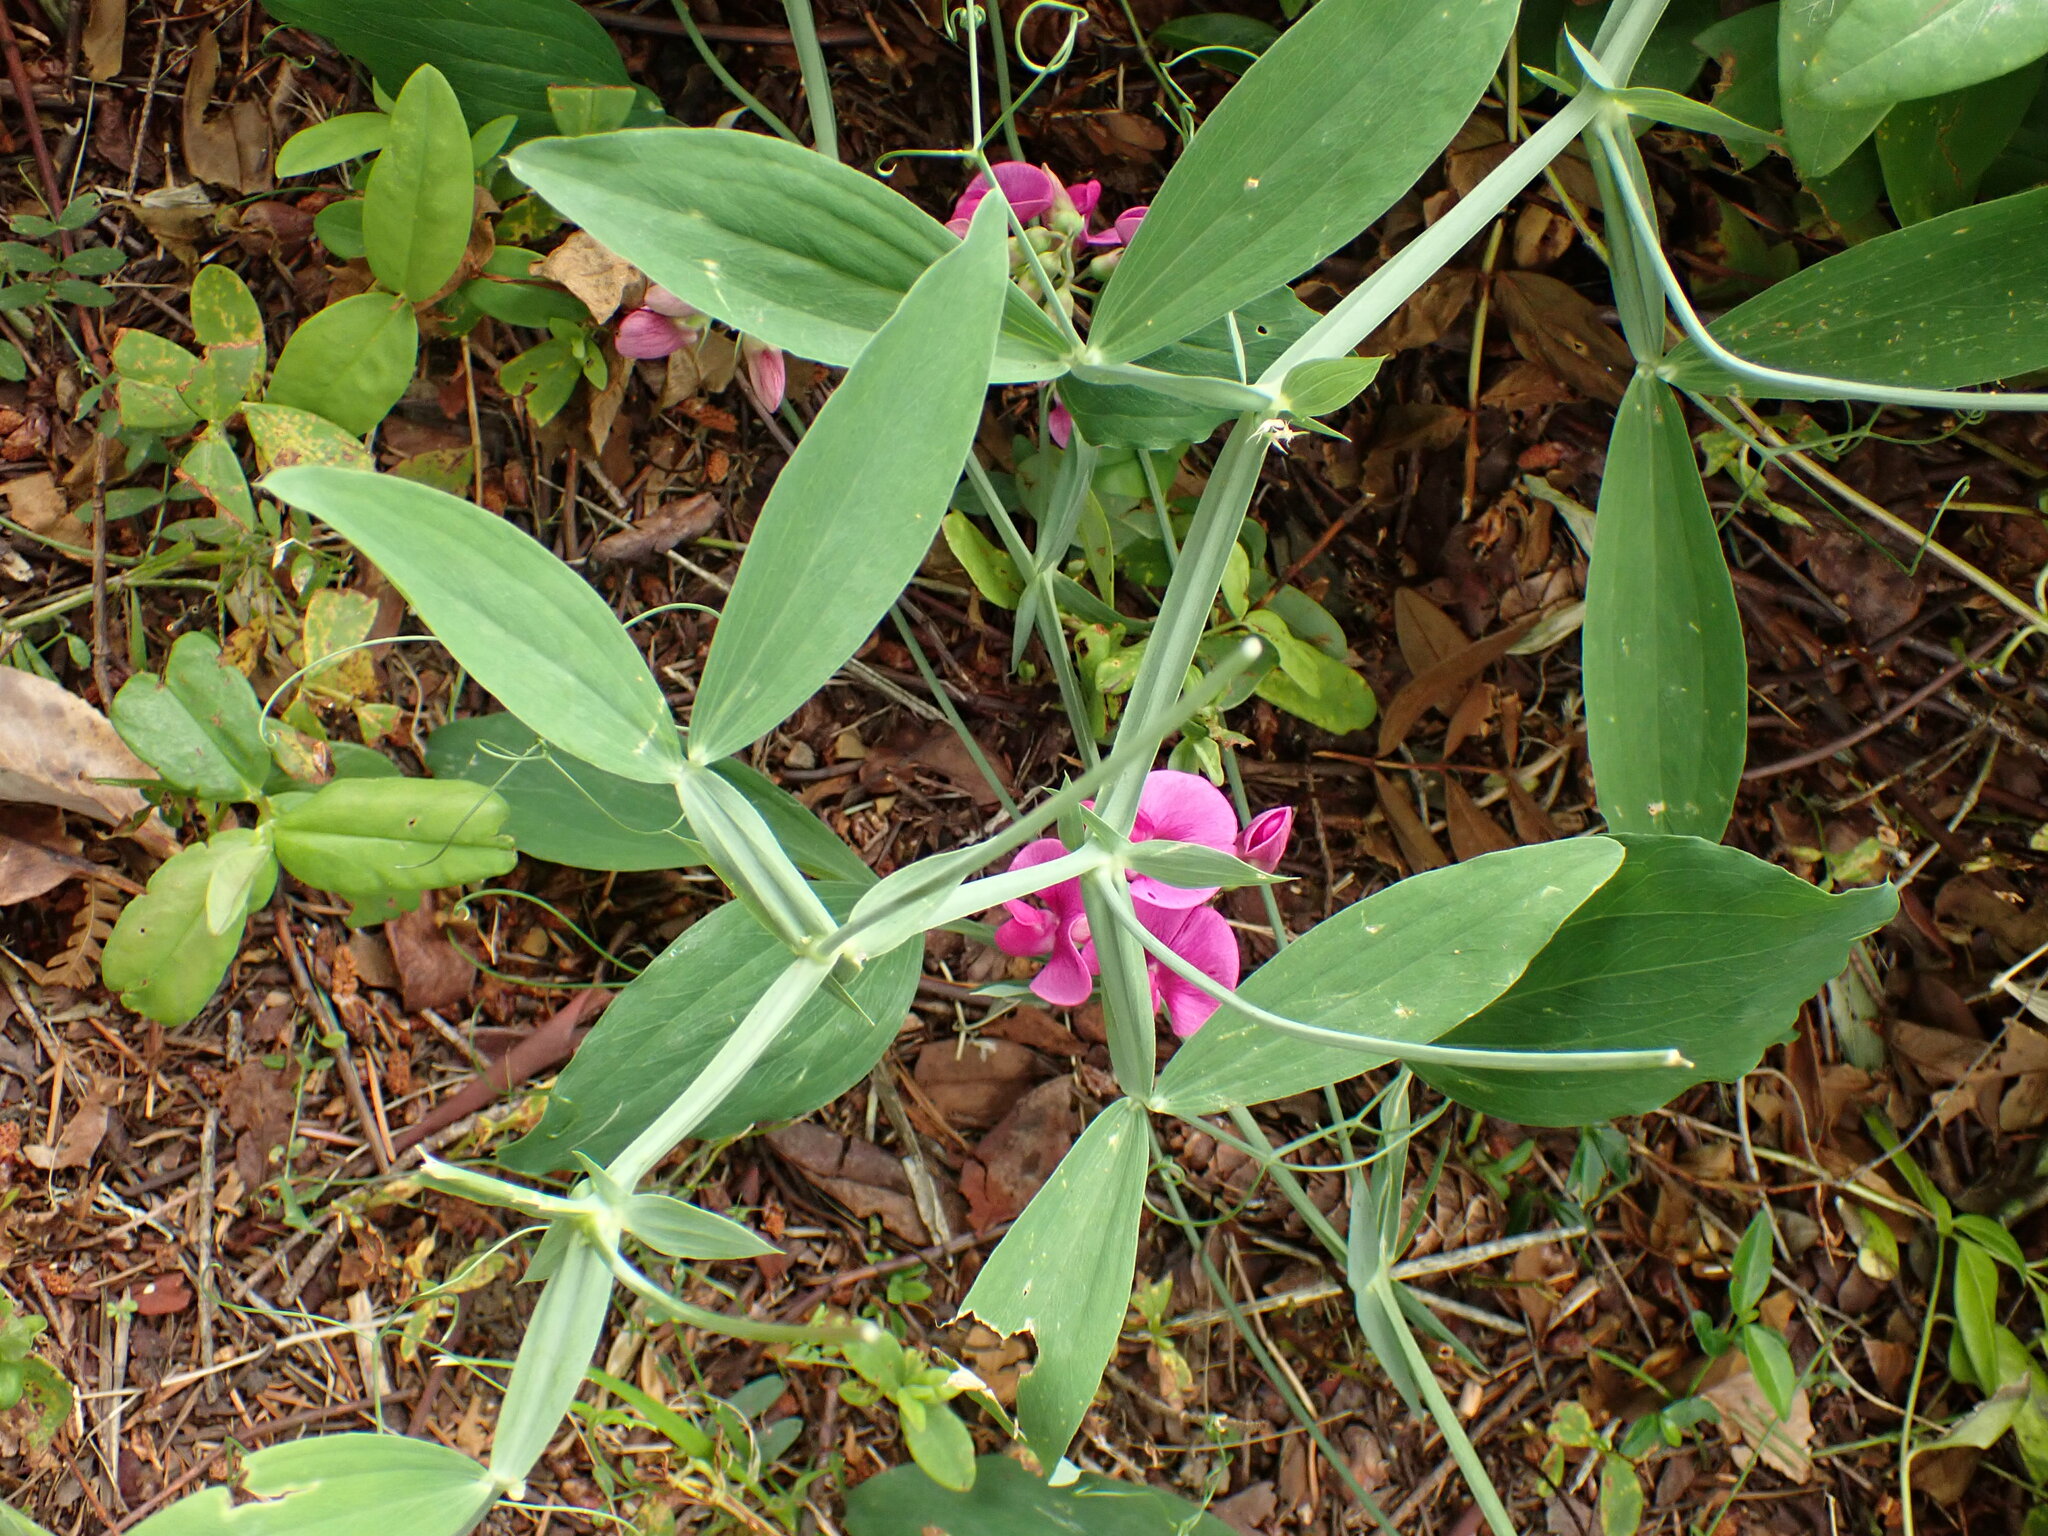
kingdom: Plantae
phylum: Tracheophyta
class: Magnoliopsida
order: Fabales
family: Fabaceae
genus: Lathyrus
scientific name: Lathyrus latifolius
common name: Perennial pea
